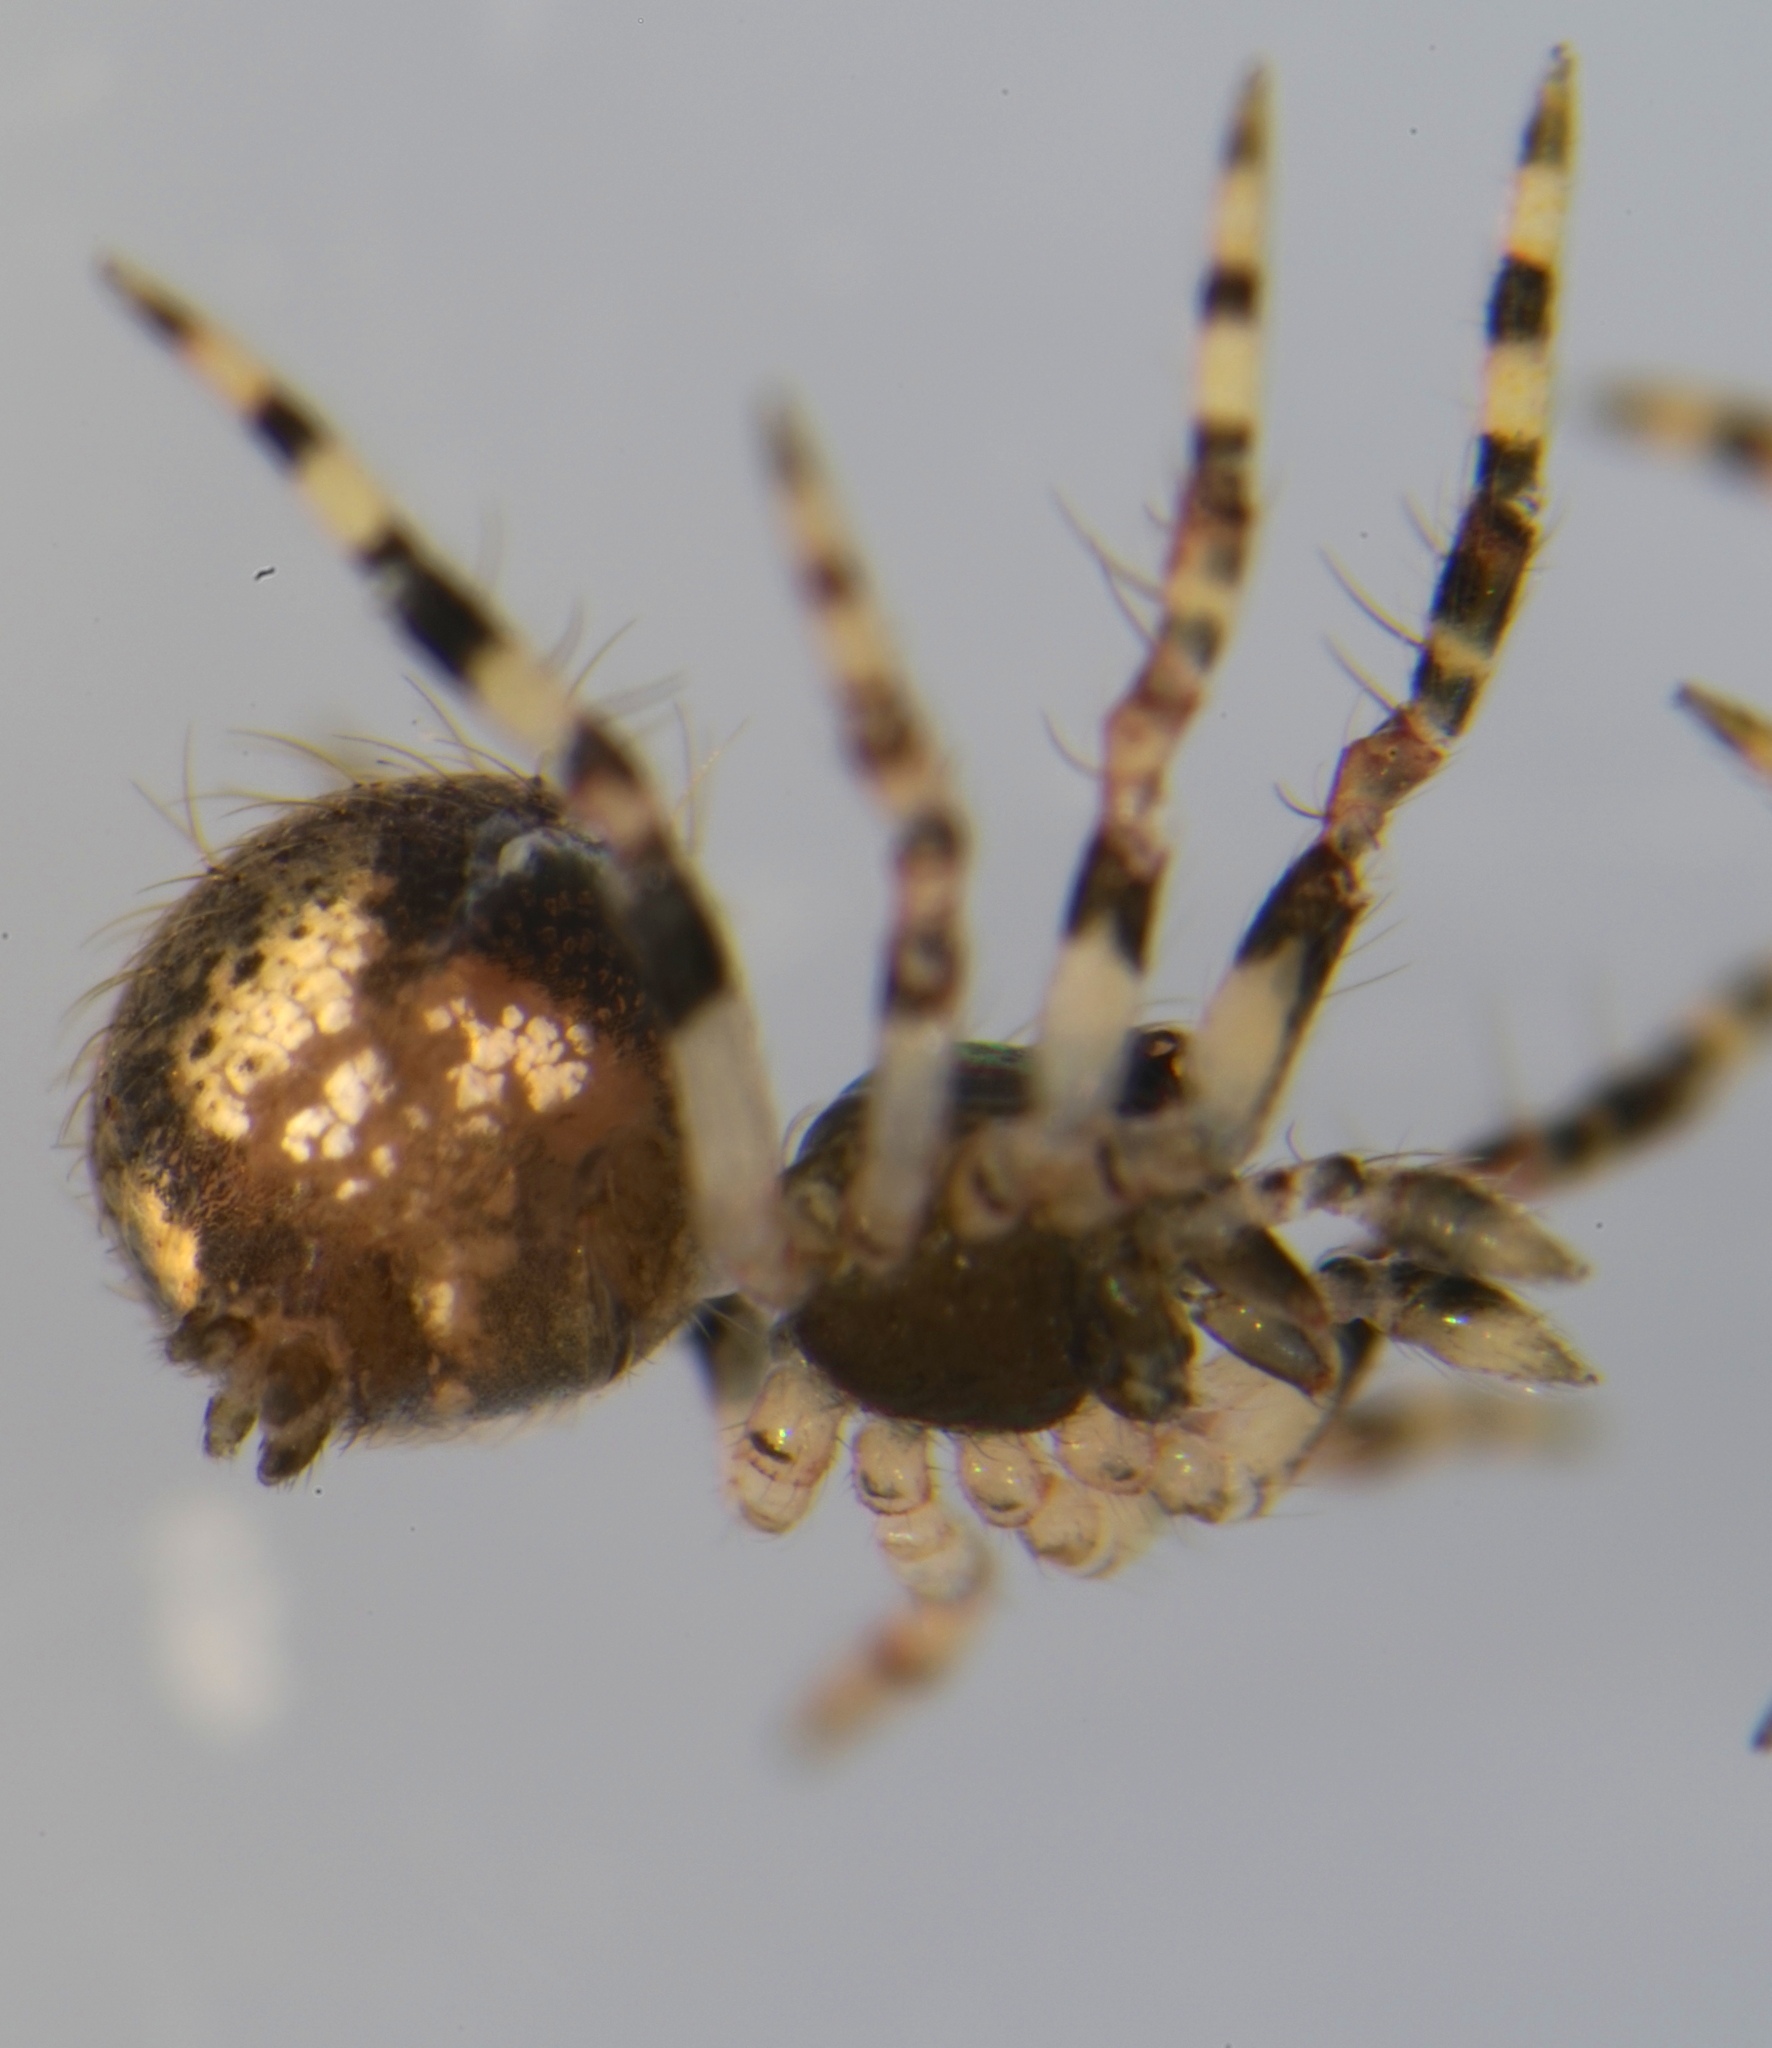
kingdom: Animalia
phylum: Arthropoda
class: Arachnida
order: Araneae
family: Theridiidae
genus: Dipoena
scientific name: Dipoena melanogaster
